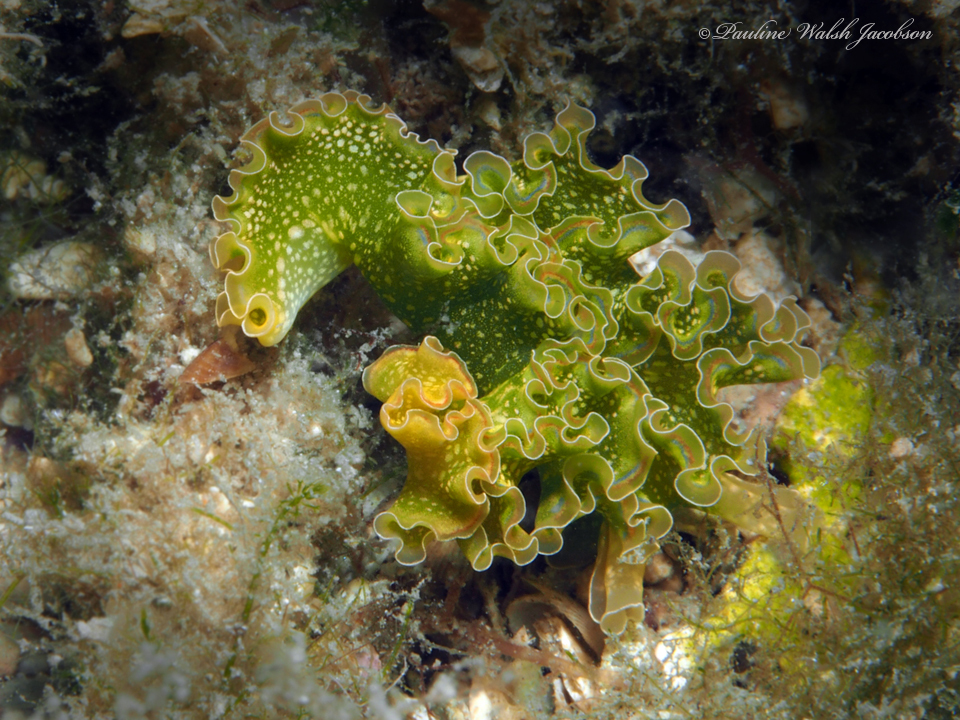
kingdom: Animalia
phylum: Mollusca
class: Gastropoda
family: Plakobranchidae
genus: Elysia
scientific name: Elysia crispata
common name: Lettuce slug
